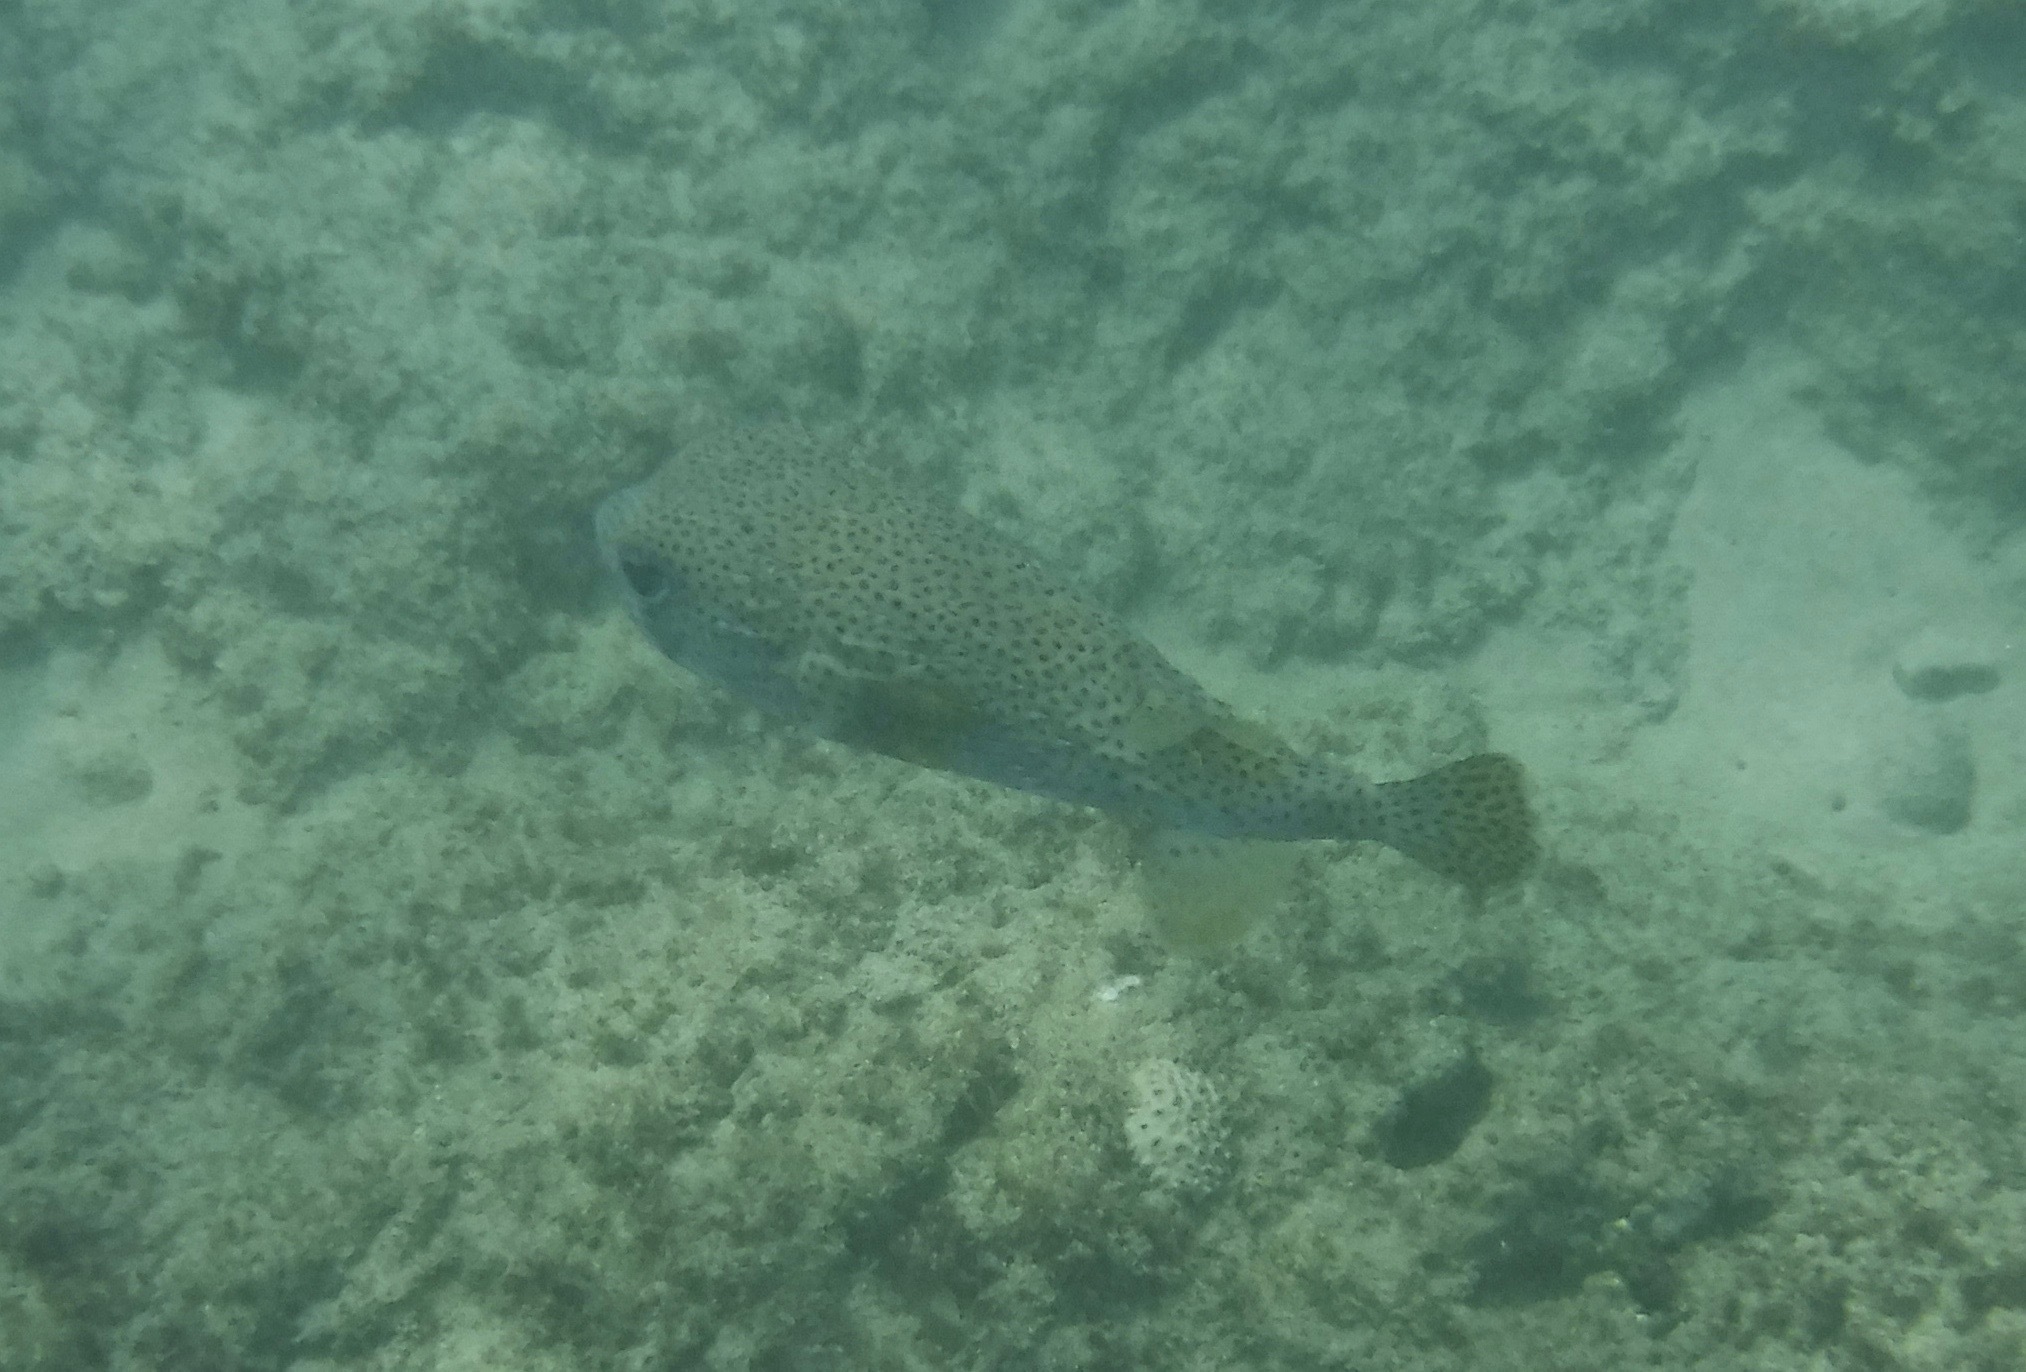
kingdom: Animalia
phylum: Chordata
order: Tetraodontiformes
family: Diodontidae
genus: Diodon
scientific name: Diodon hystrix
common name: Giant porcupinefish
